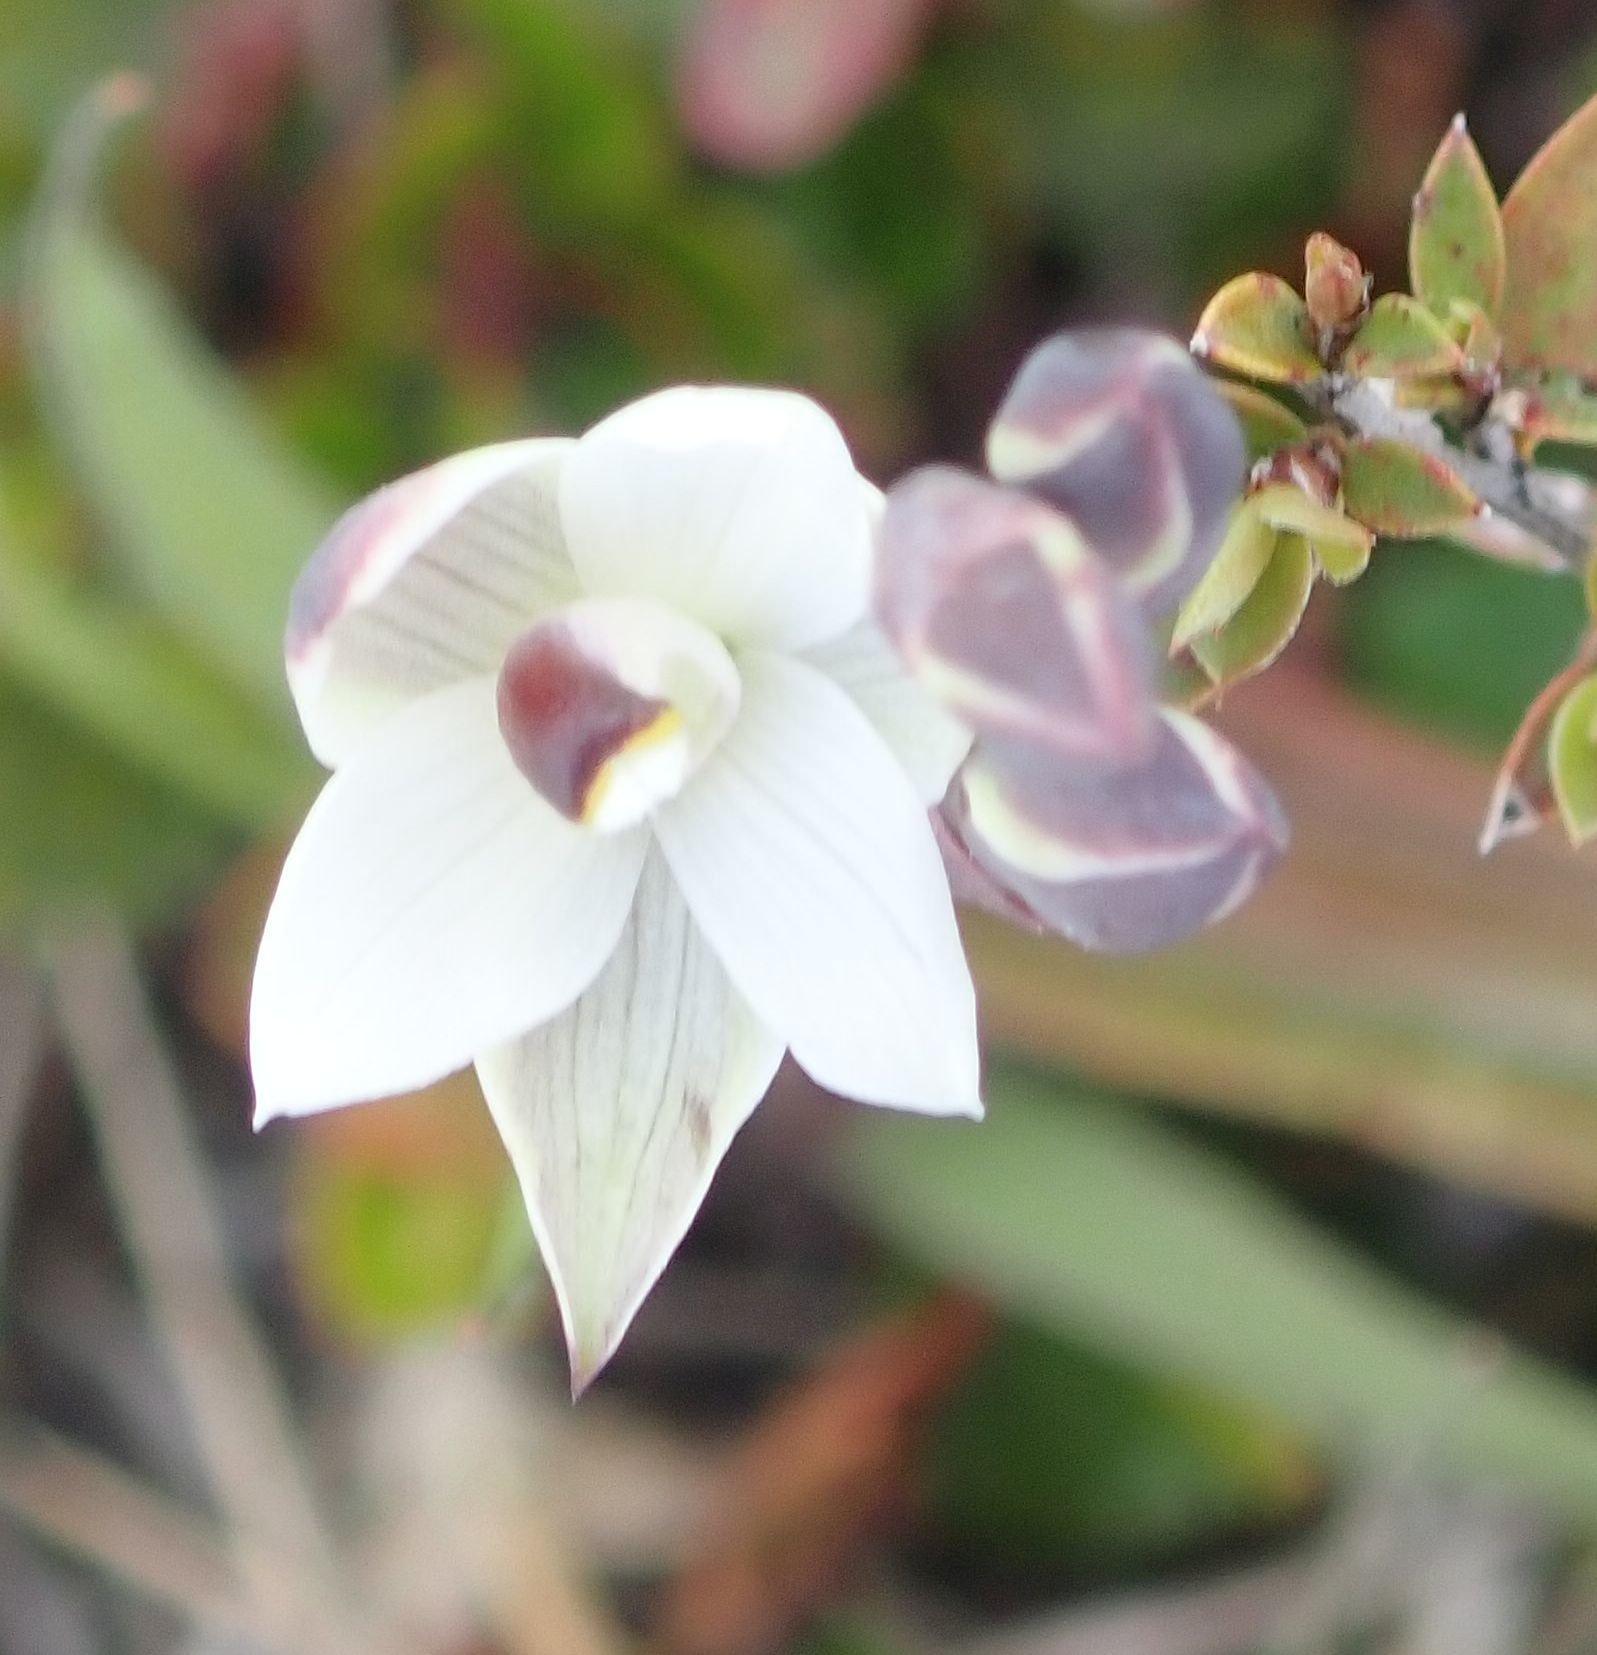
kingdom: Plantae
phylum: Tracheophyta
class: Liliopsida
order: Asparagales
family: Orchidaceae
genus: Thelymitra
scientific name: Thelymitra longifolia
